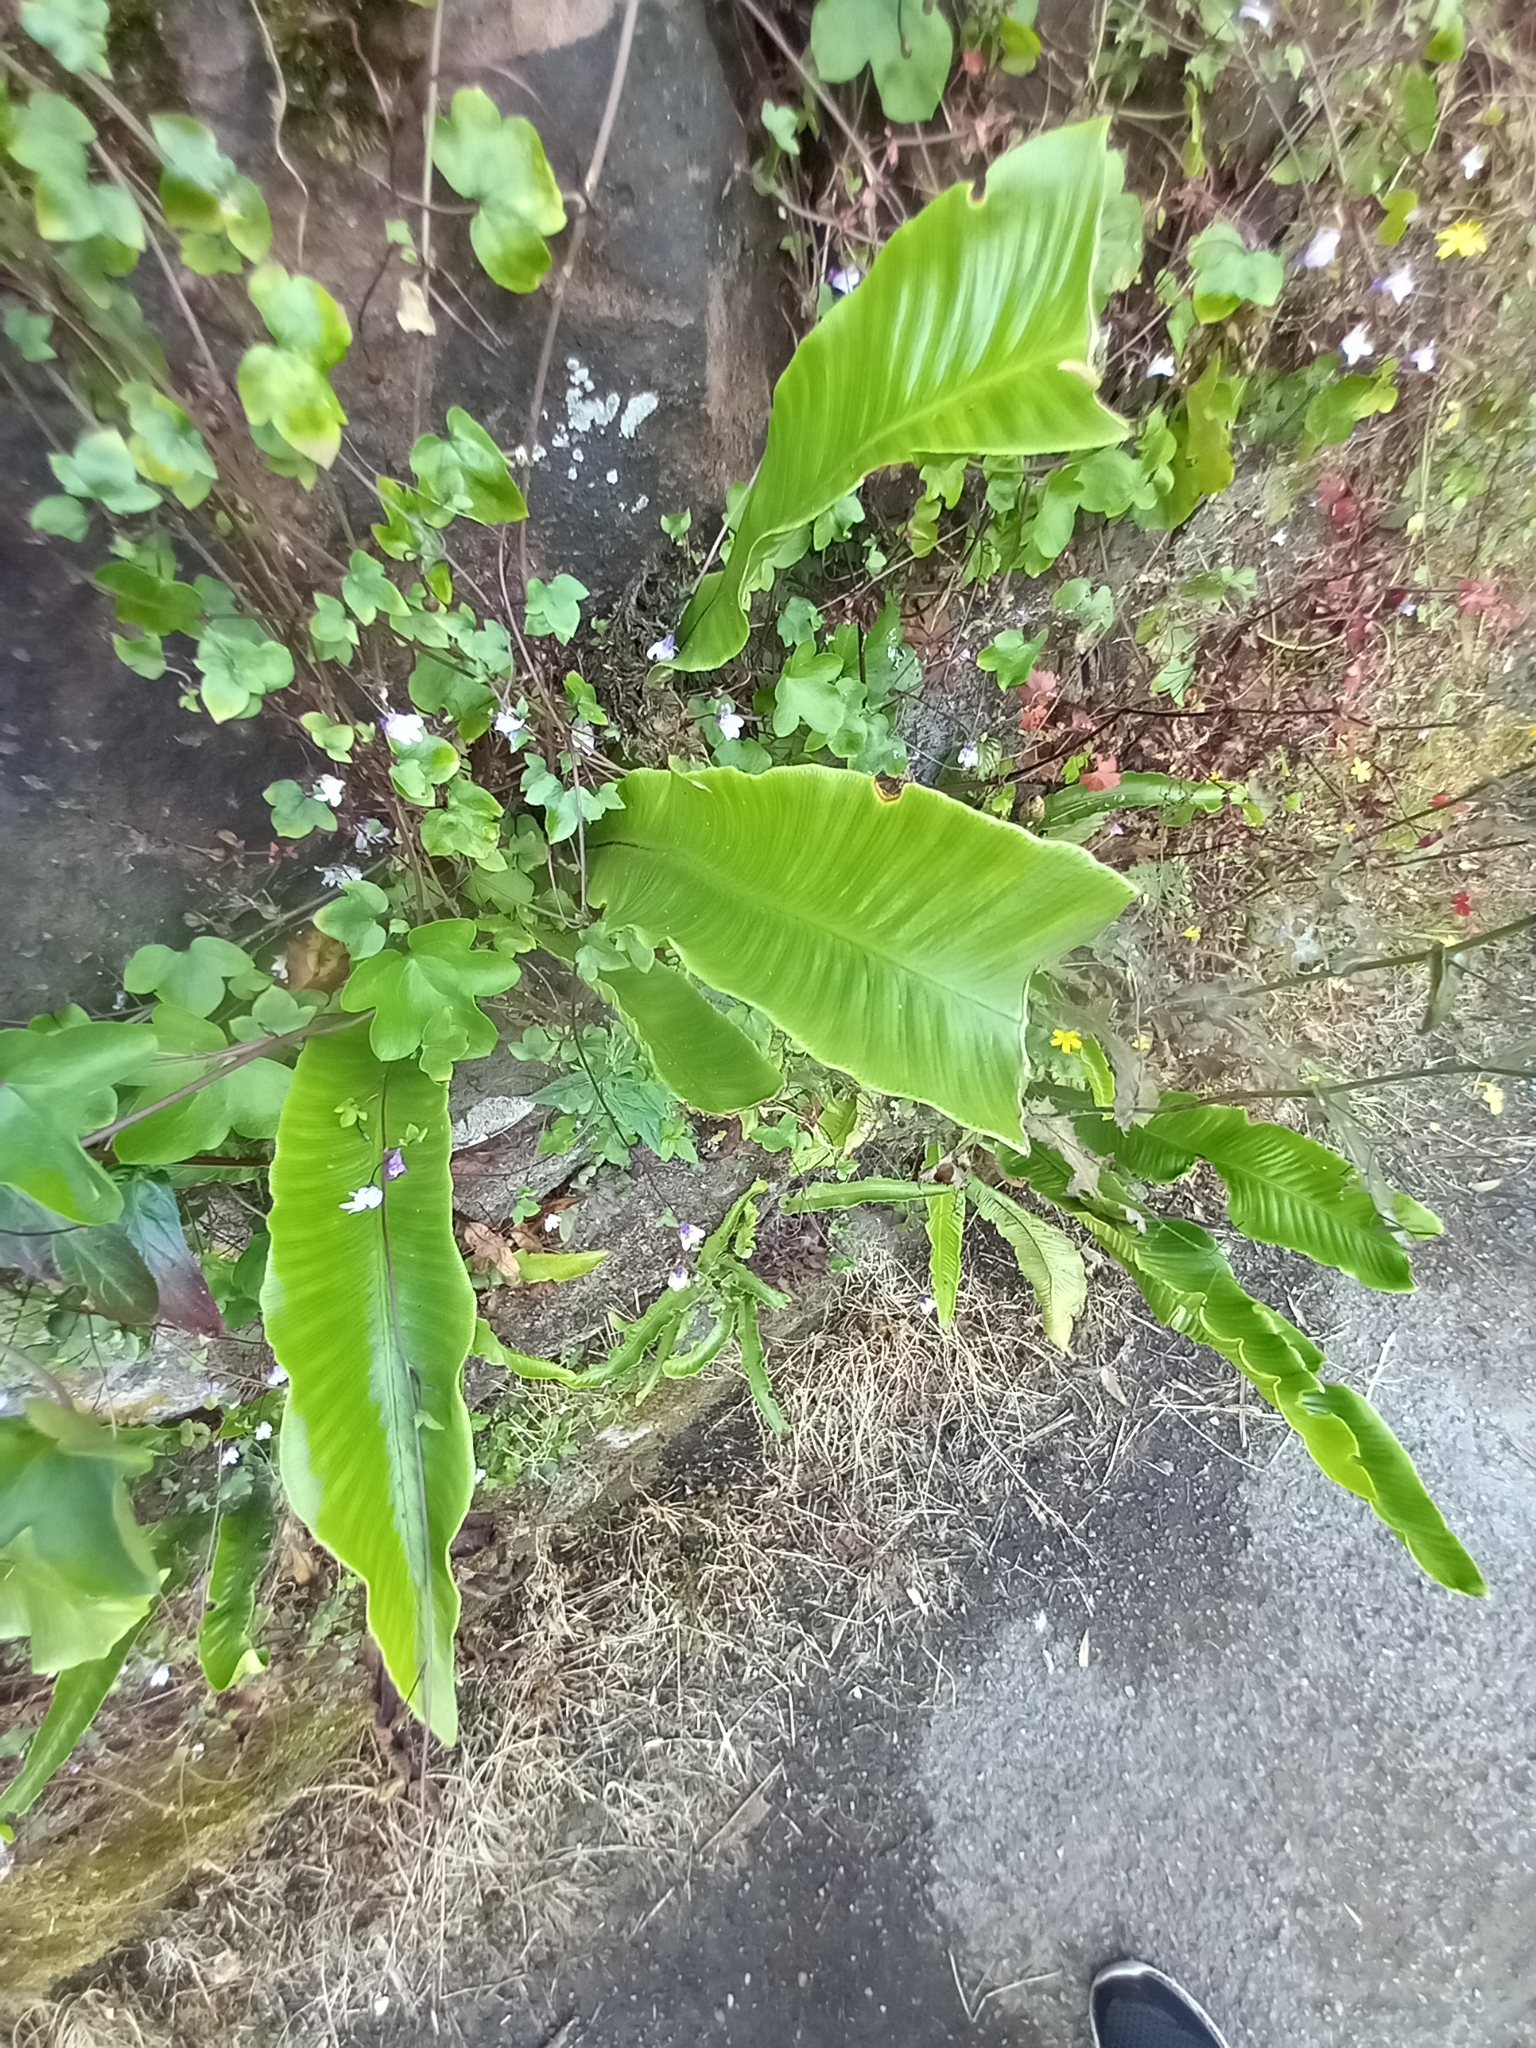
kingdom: Plantae
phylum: Tracheophyta
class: Polypodiopsida
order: Polypodiales
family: Aspleniaceae
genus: Asplenium
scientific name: Asplenium scolopendrium
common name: Hart's-tongue fern
